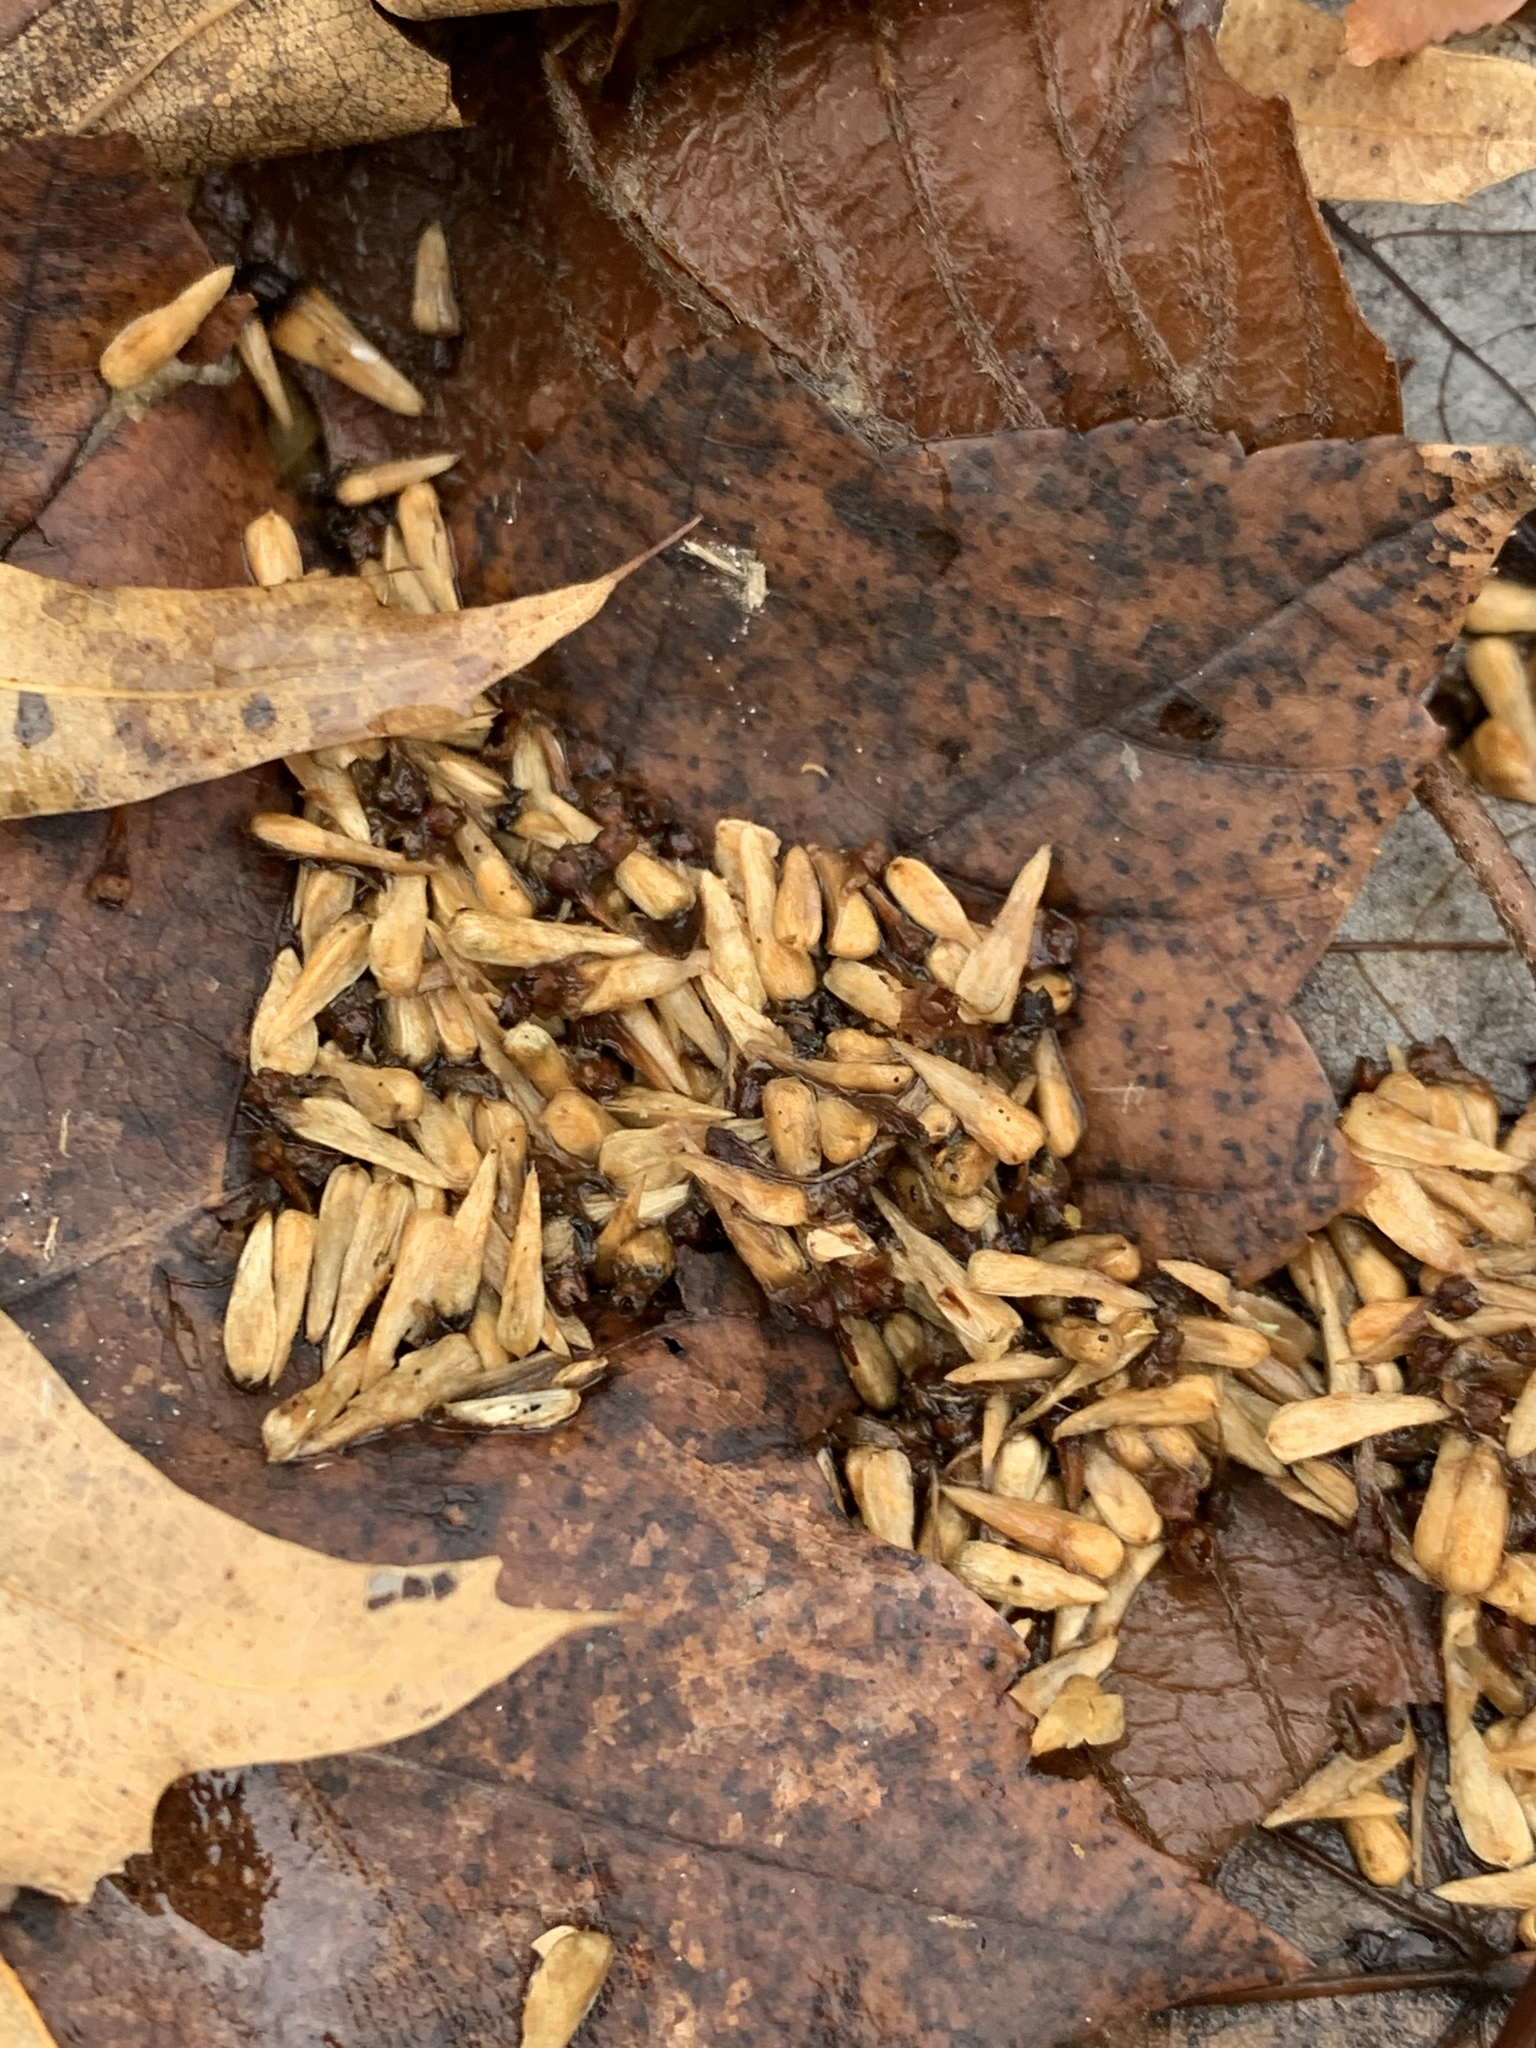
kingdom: Plantae
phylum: Tracheophyta
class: Magnoliopsida
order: Gentianales
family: Rubiaceae
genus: Cephalanthus
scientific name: Cephalanthus occidentalis
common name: Button-willow
